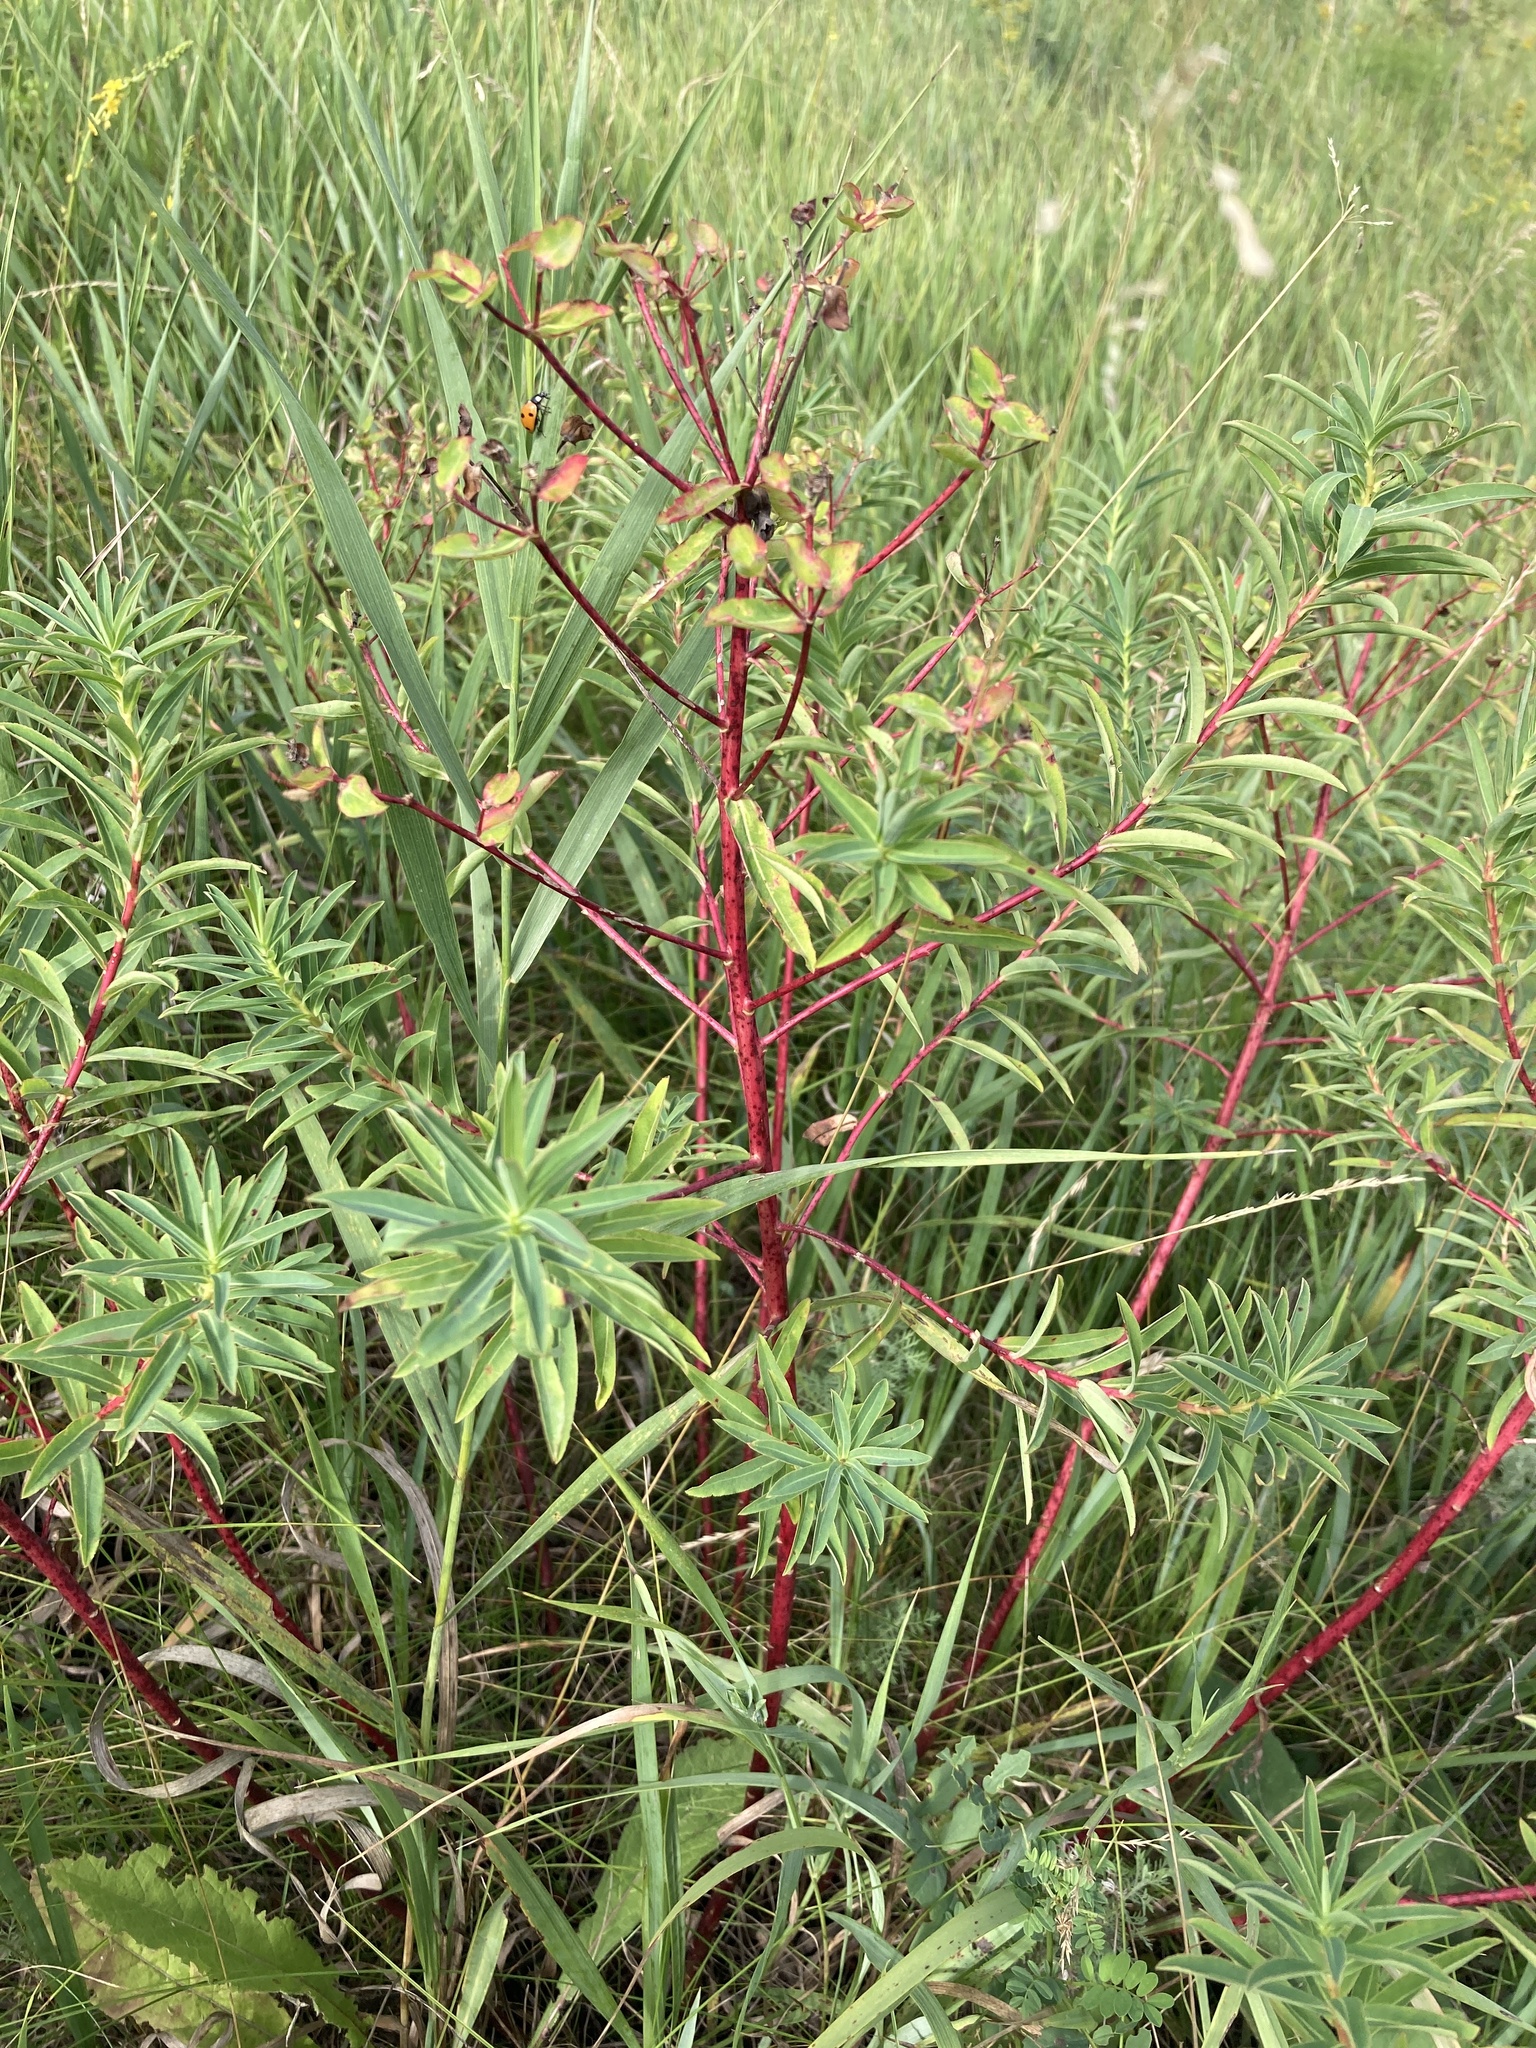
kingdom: Plantae
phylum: Tracheophyta
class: Magnoliopsida
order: Malpighiales
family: Euphorbiaceae
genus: Euphorbia
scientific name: Euphorbia semivillosa
